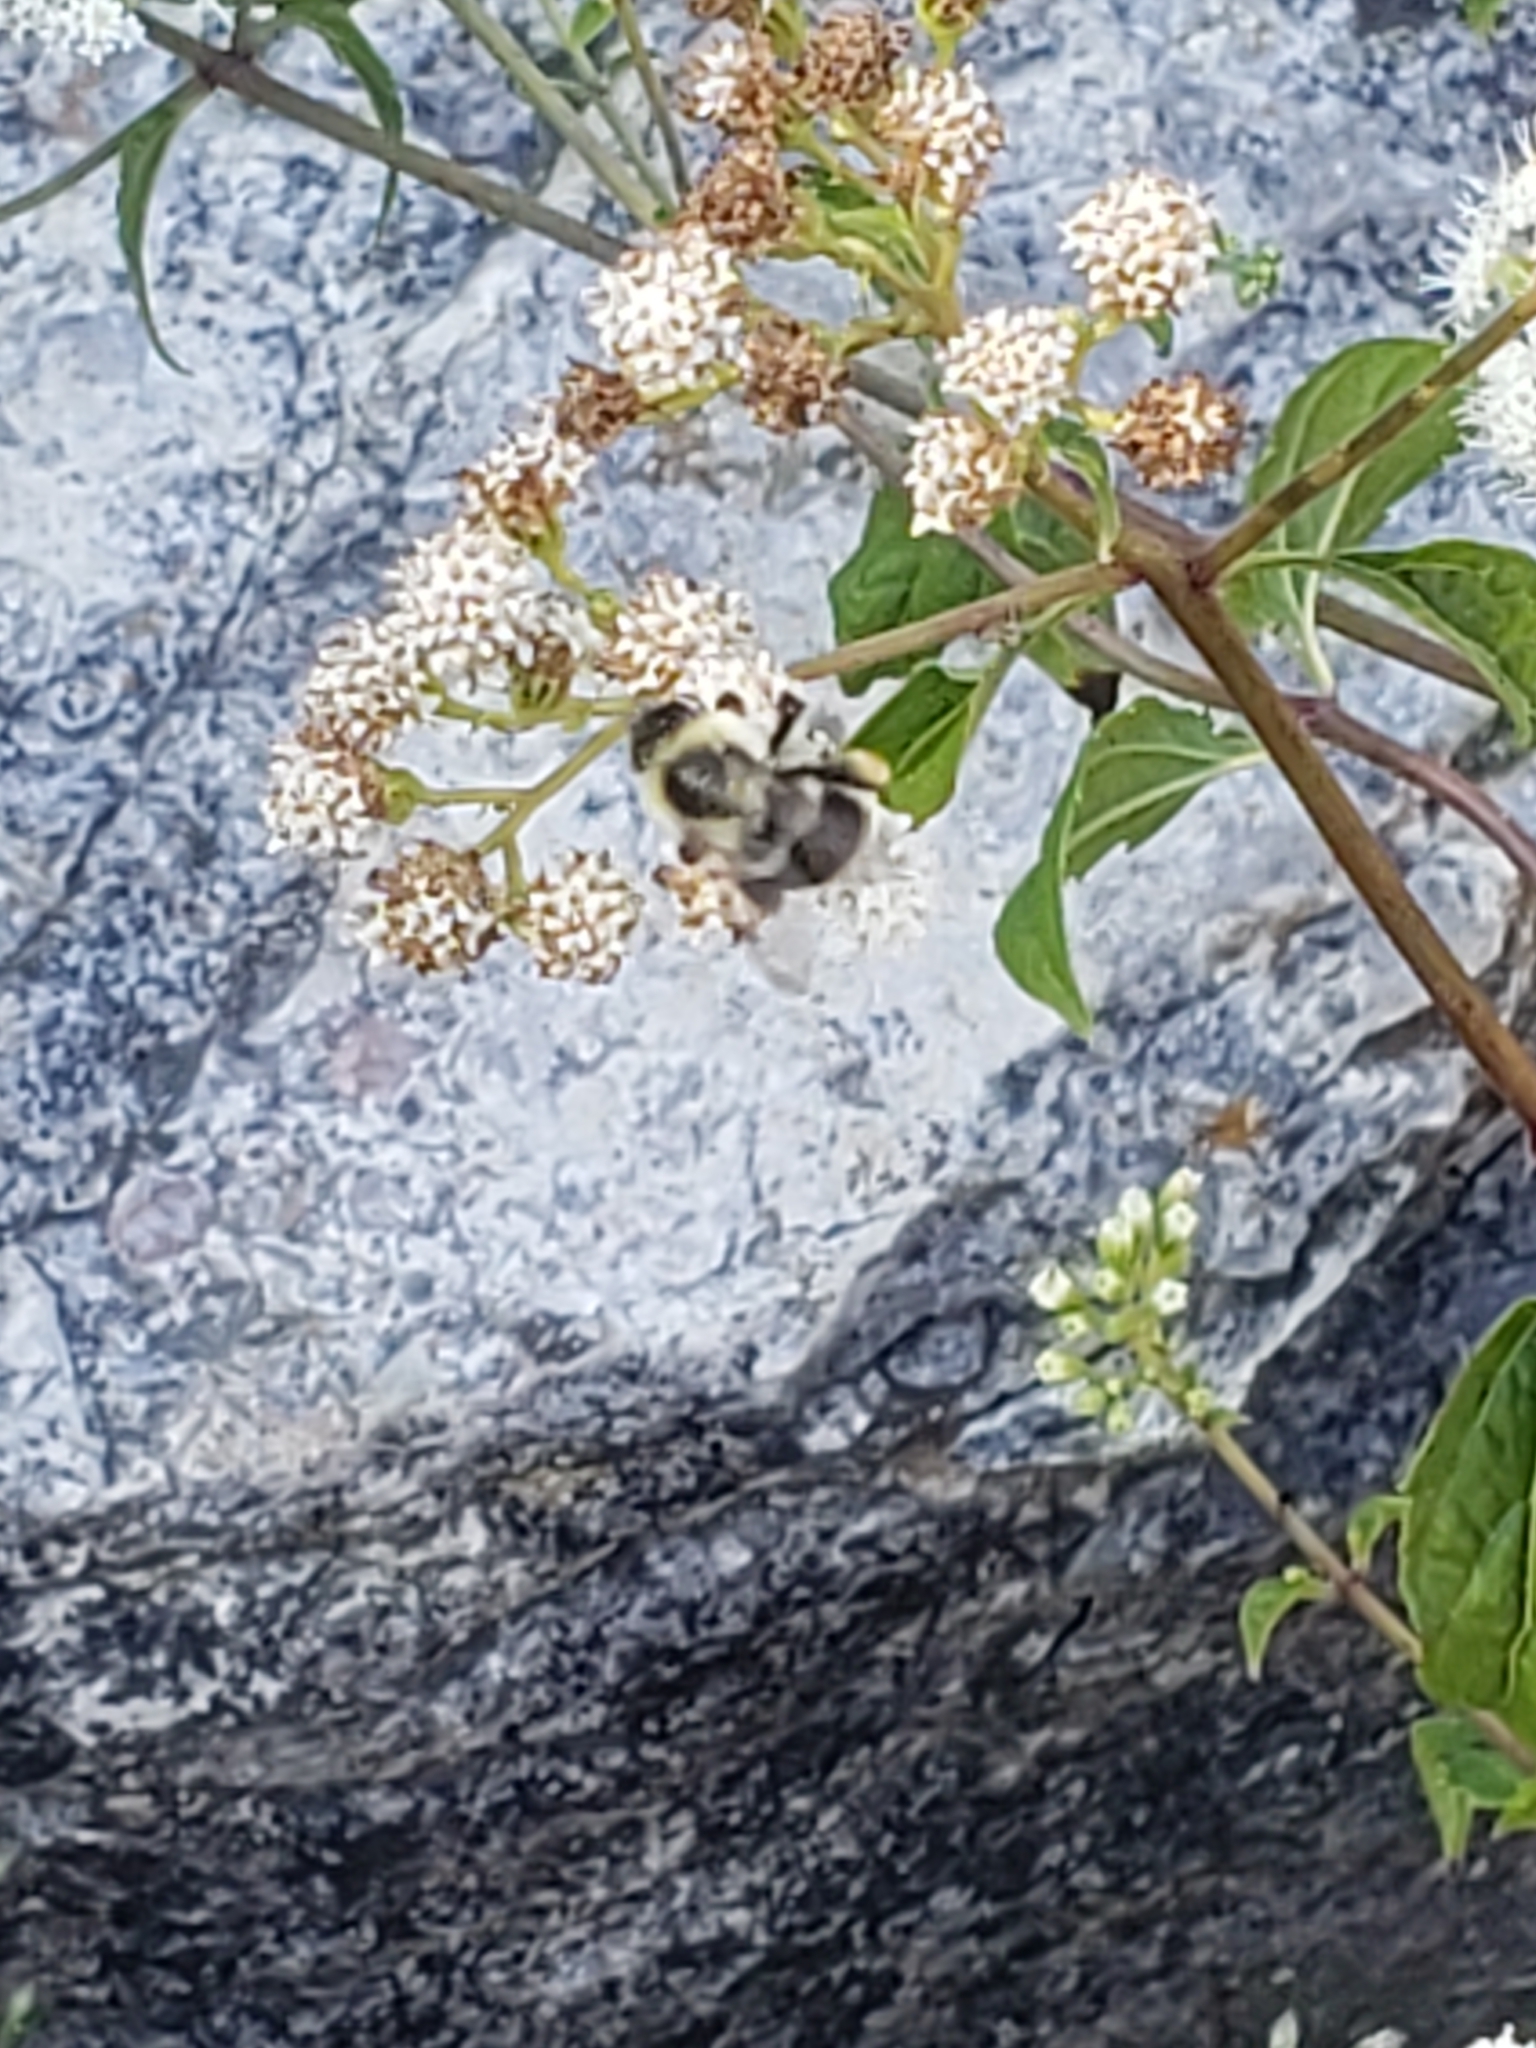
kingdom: Animalia
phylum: Arthropoda
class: Insecta
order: Hymenoptera
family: Apidae
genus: Bombus
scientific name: Bombus impatiens
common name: Common eastern bumble bee
